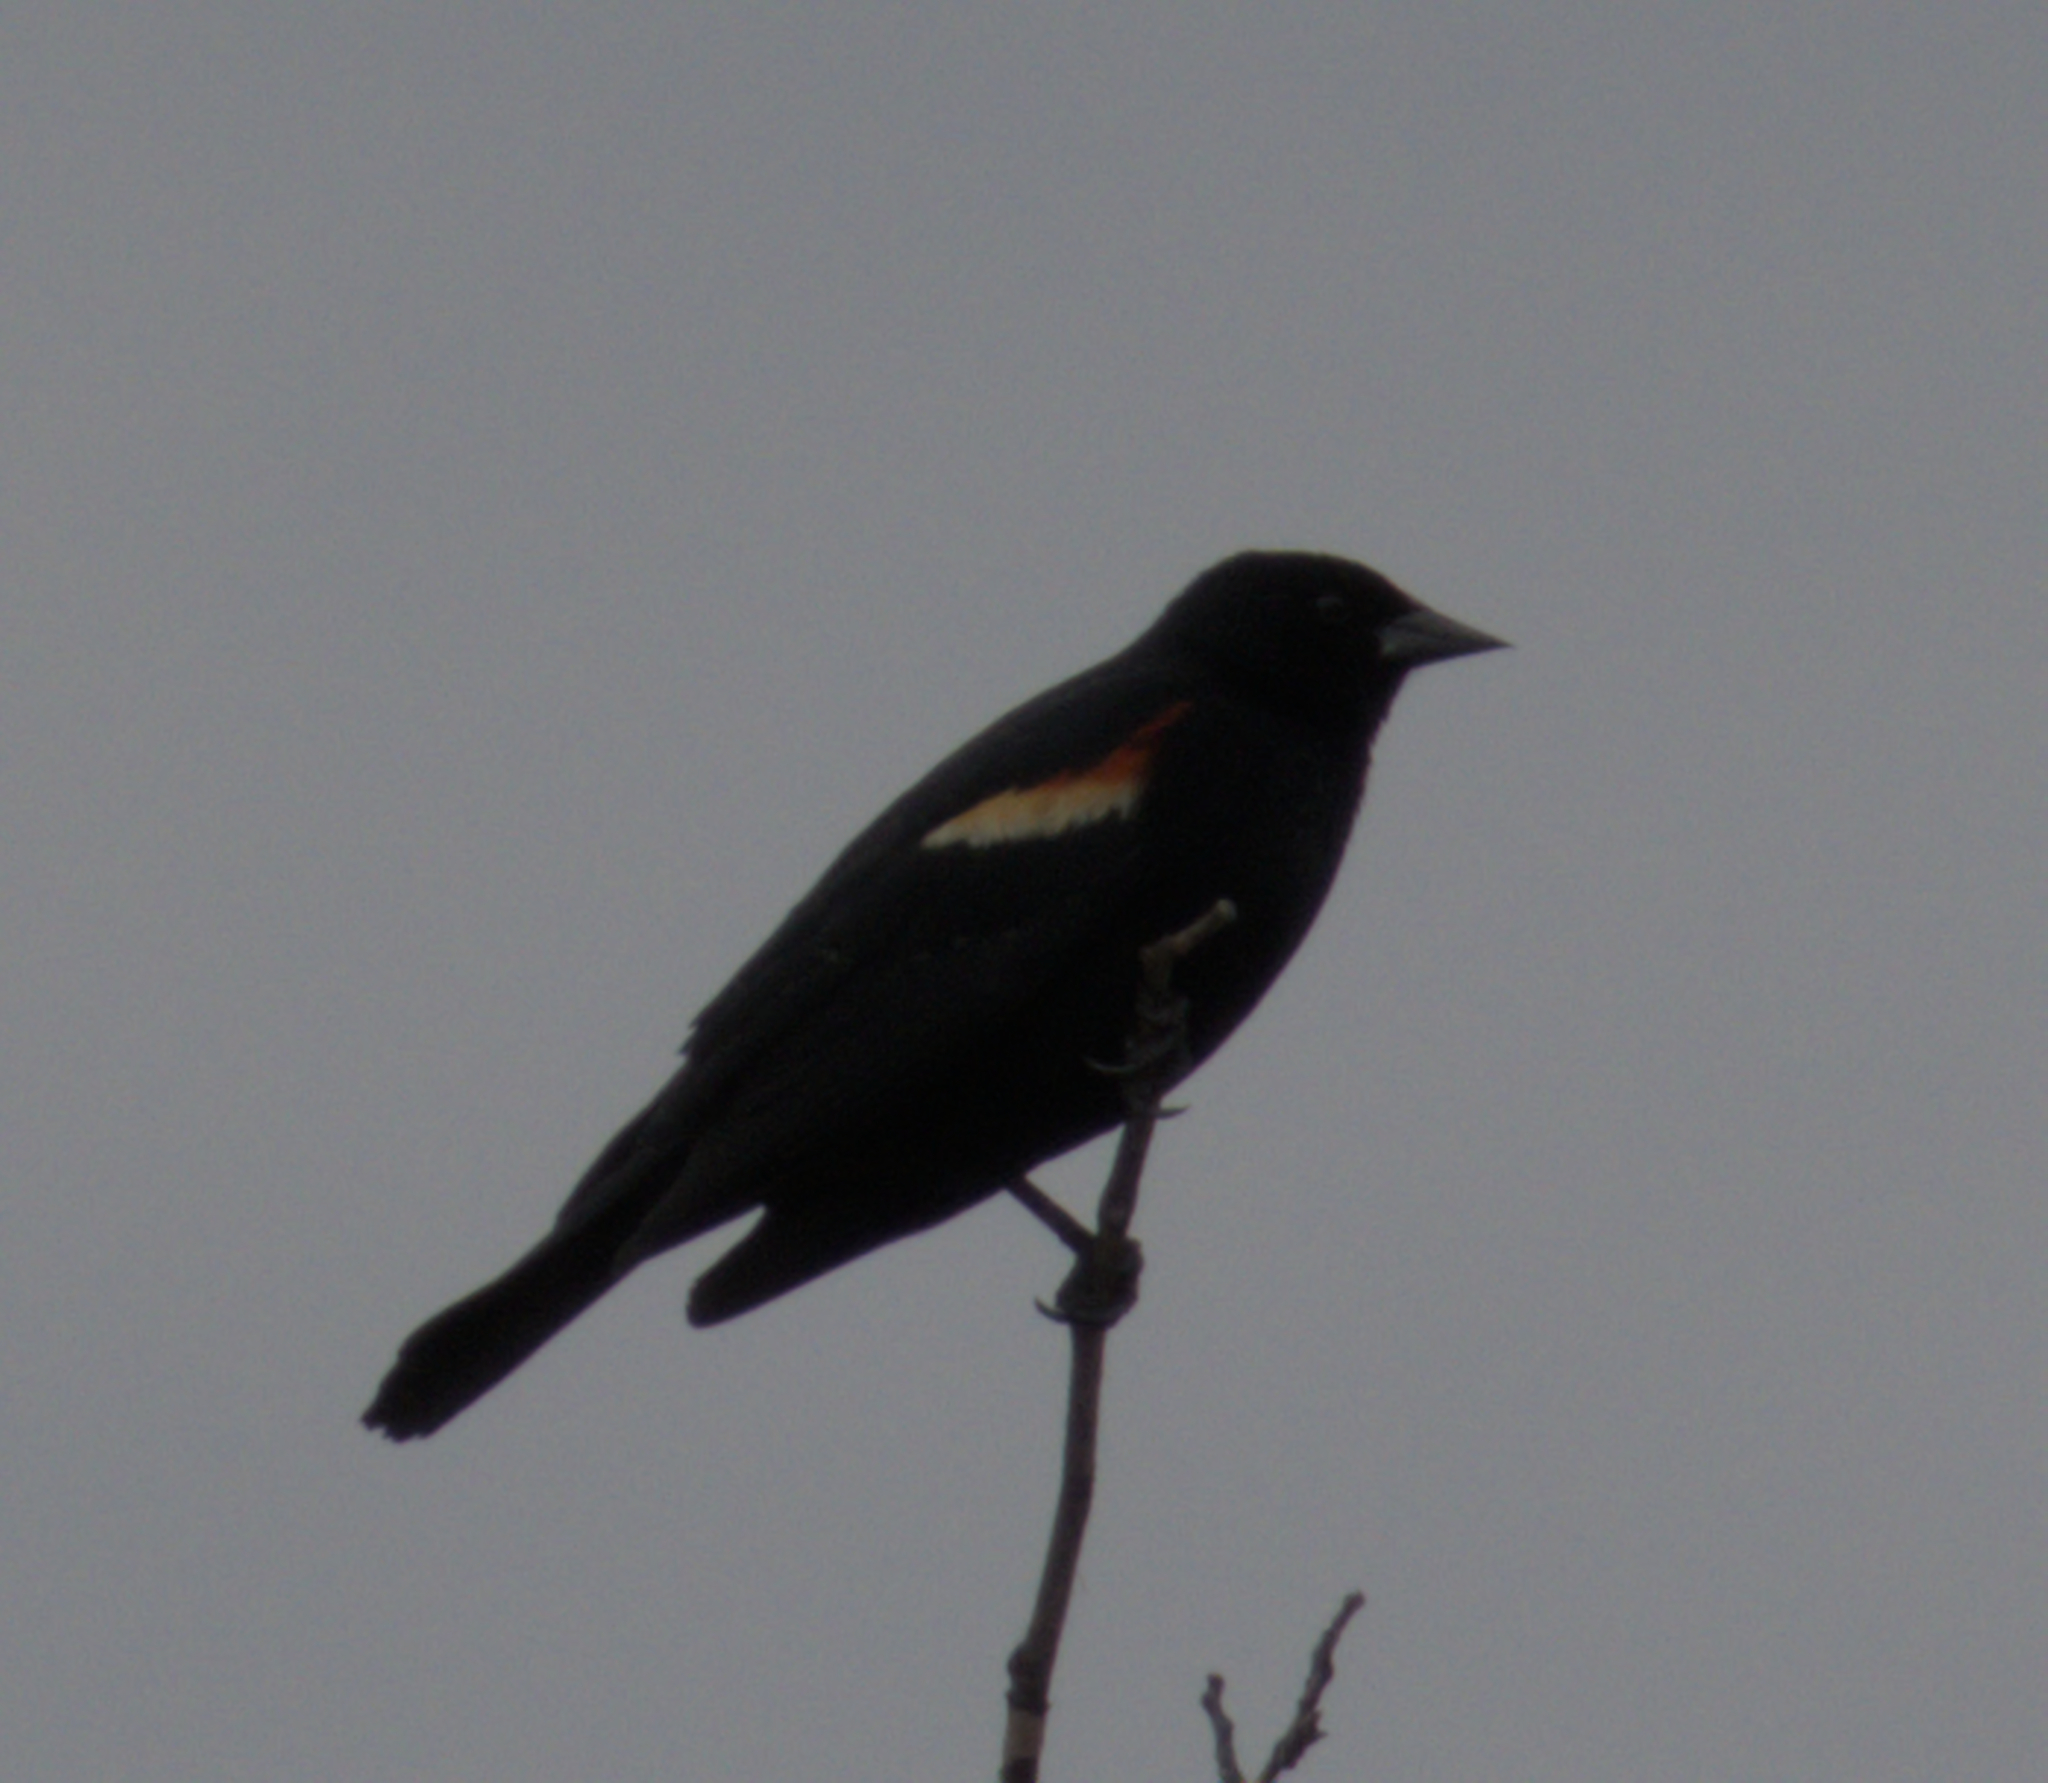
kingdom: Animalia
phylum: Chordata
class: Aves
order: Passeriformes
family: Icteridae
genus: Agelaius
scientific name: Agelaius phoeniceus
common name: Red-winged blackbird
